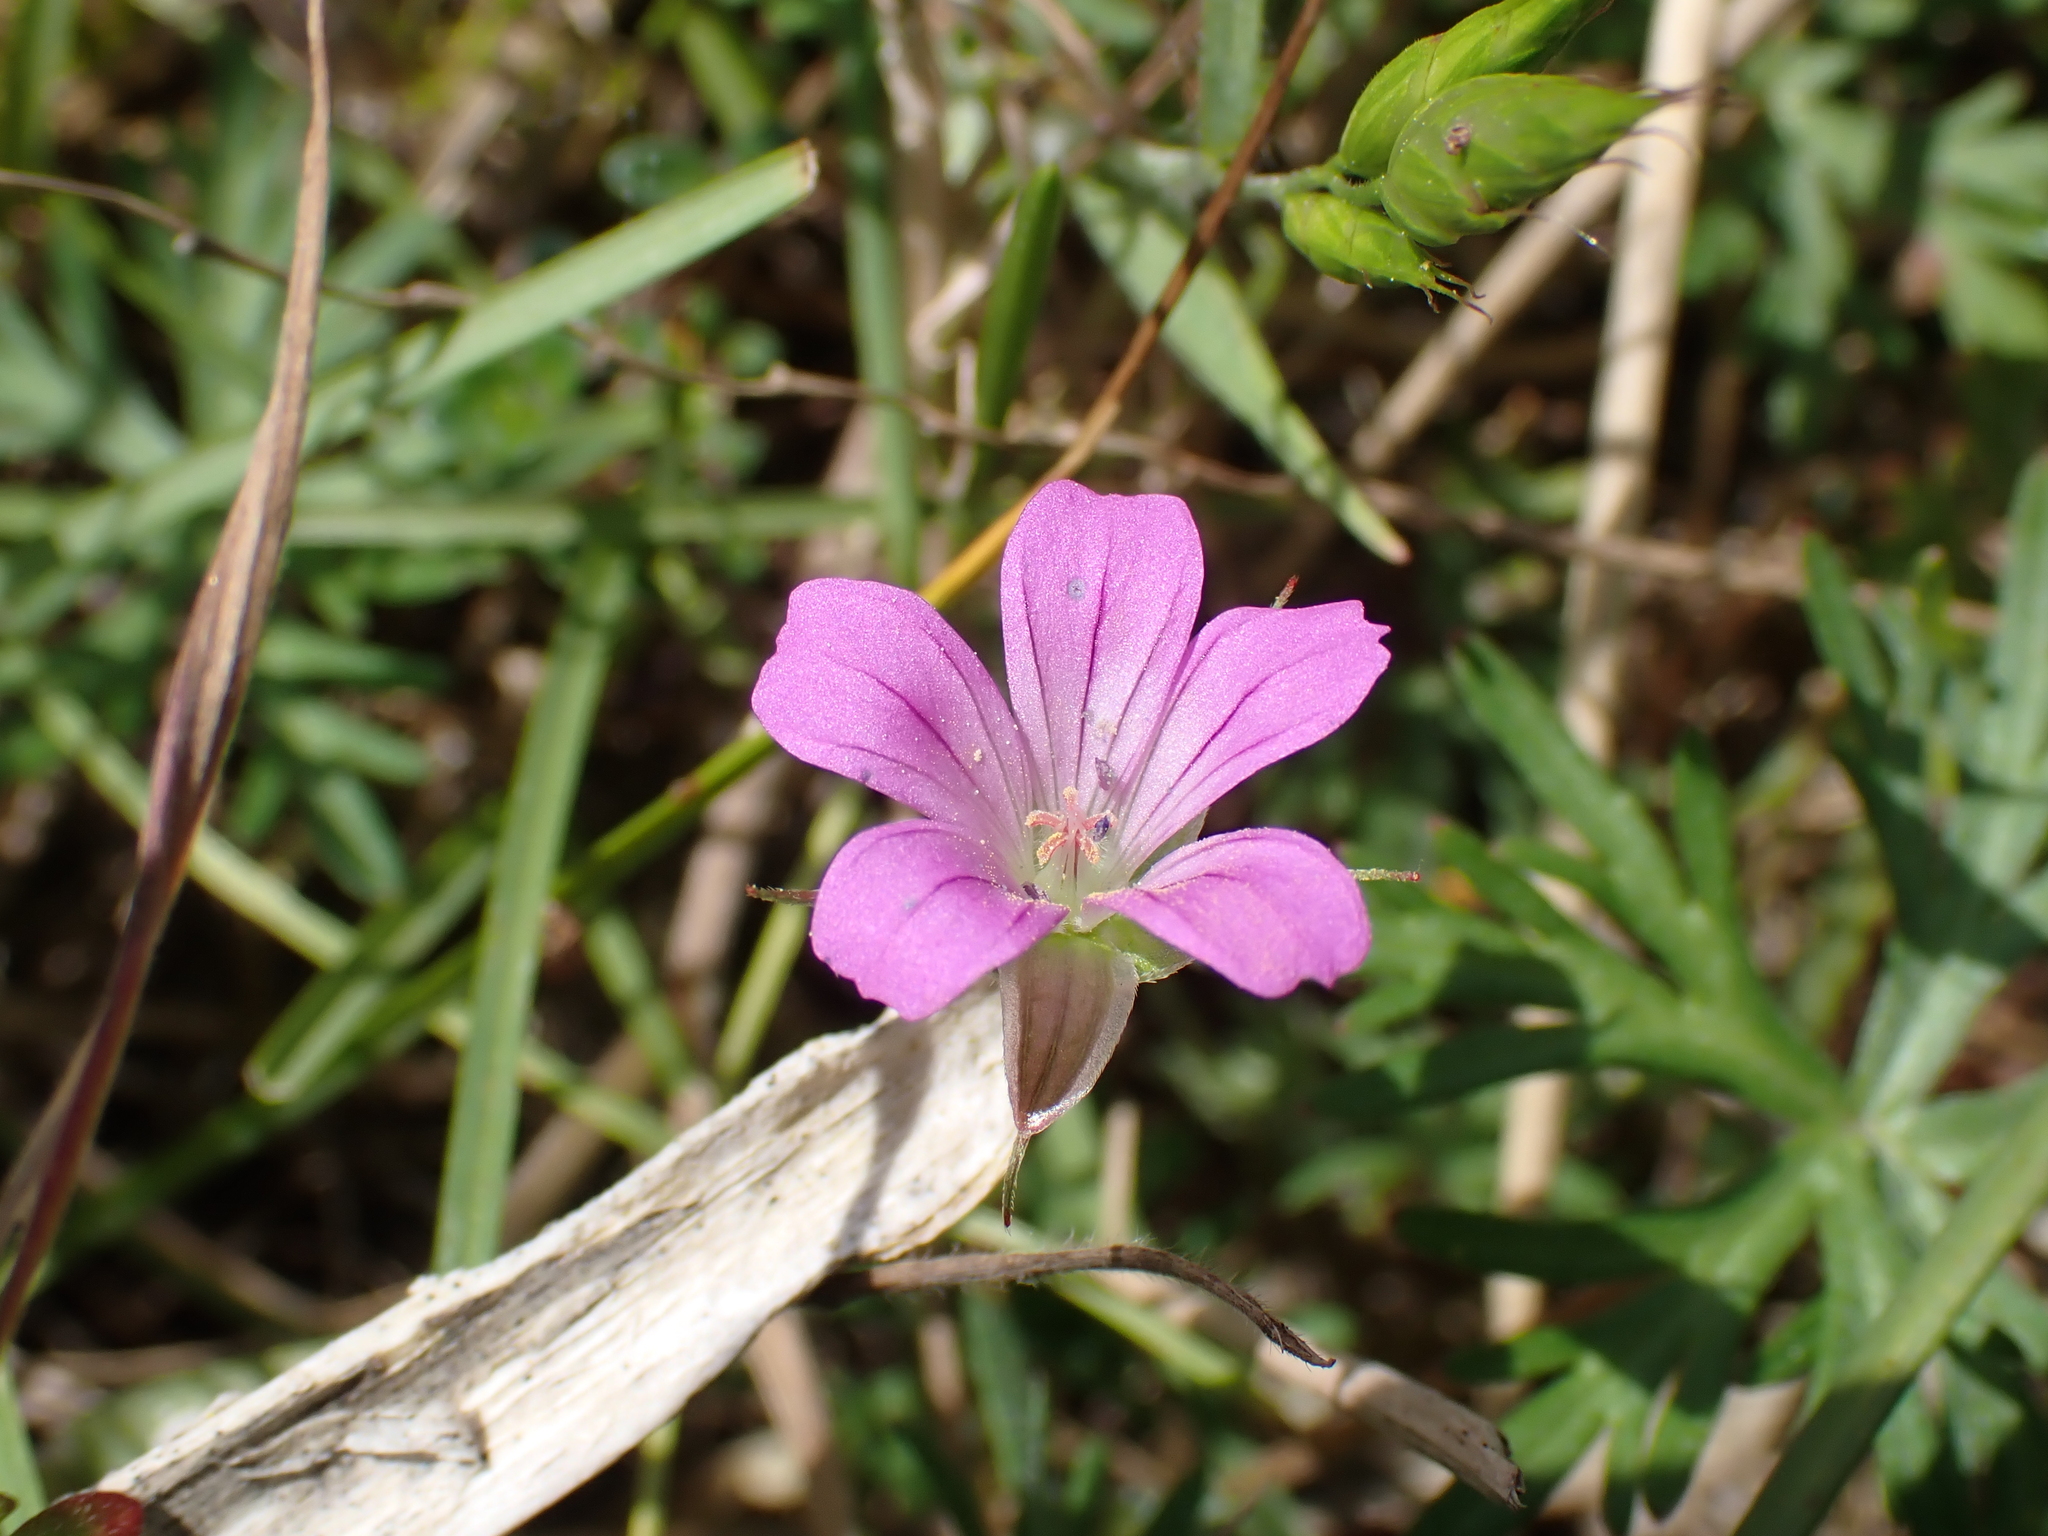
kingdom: Plantae
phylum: Tracheophyta
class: Magnoliopsida
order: Geraniales
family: Geraniaceae
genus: Geranium
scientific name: Geranium columbinum
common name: Long-stalked crane's-bill
